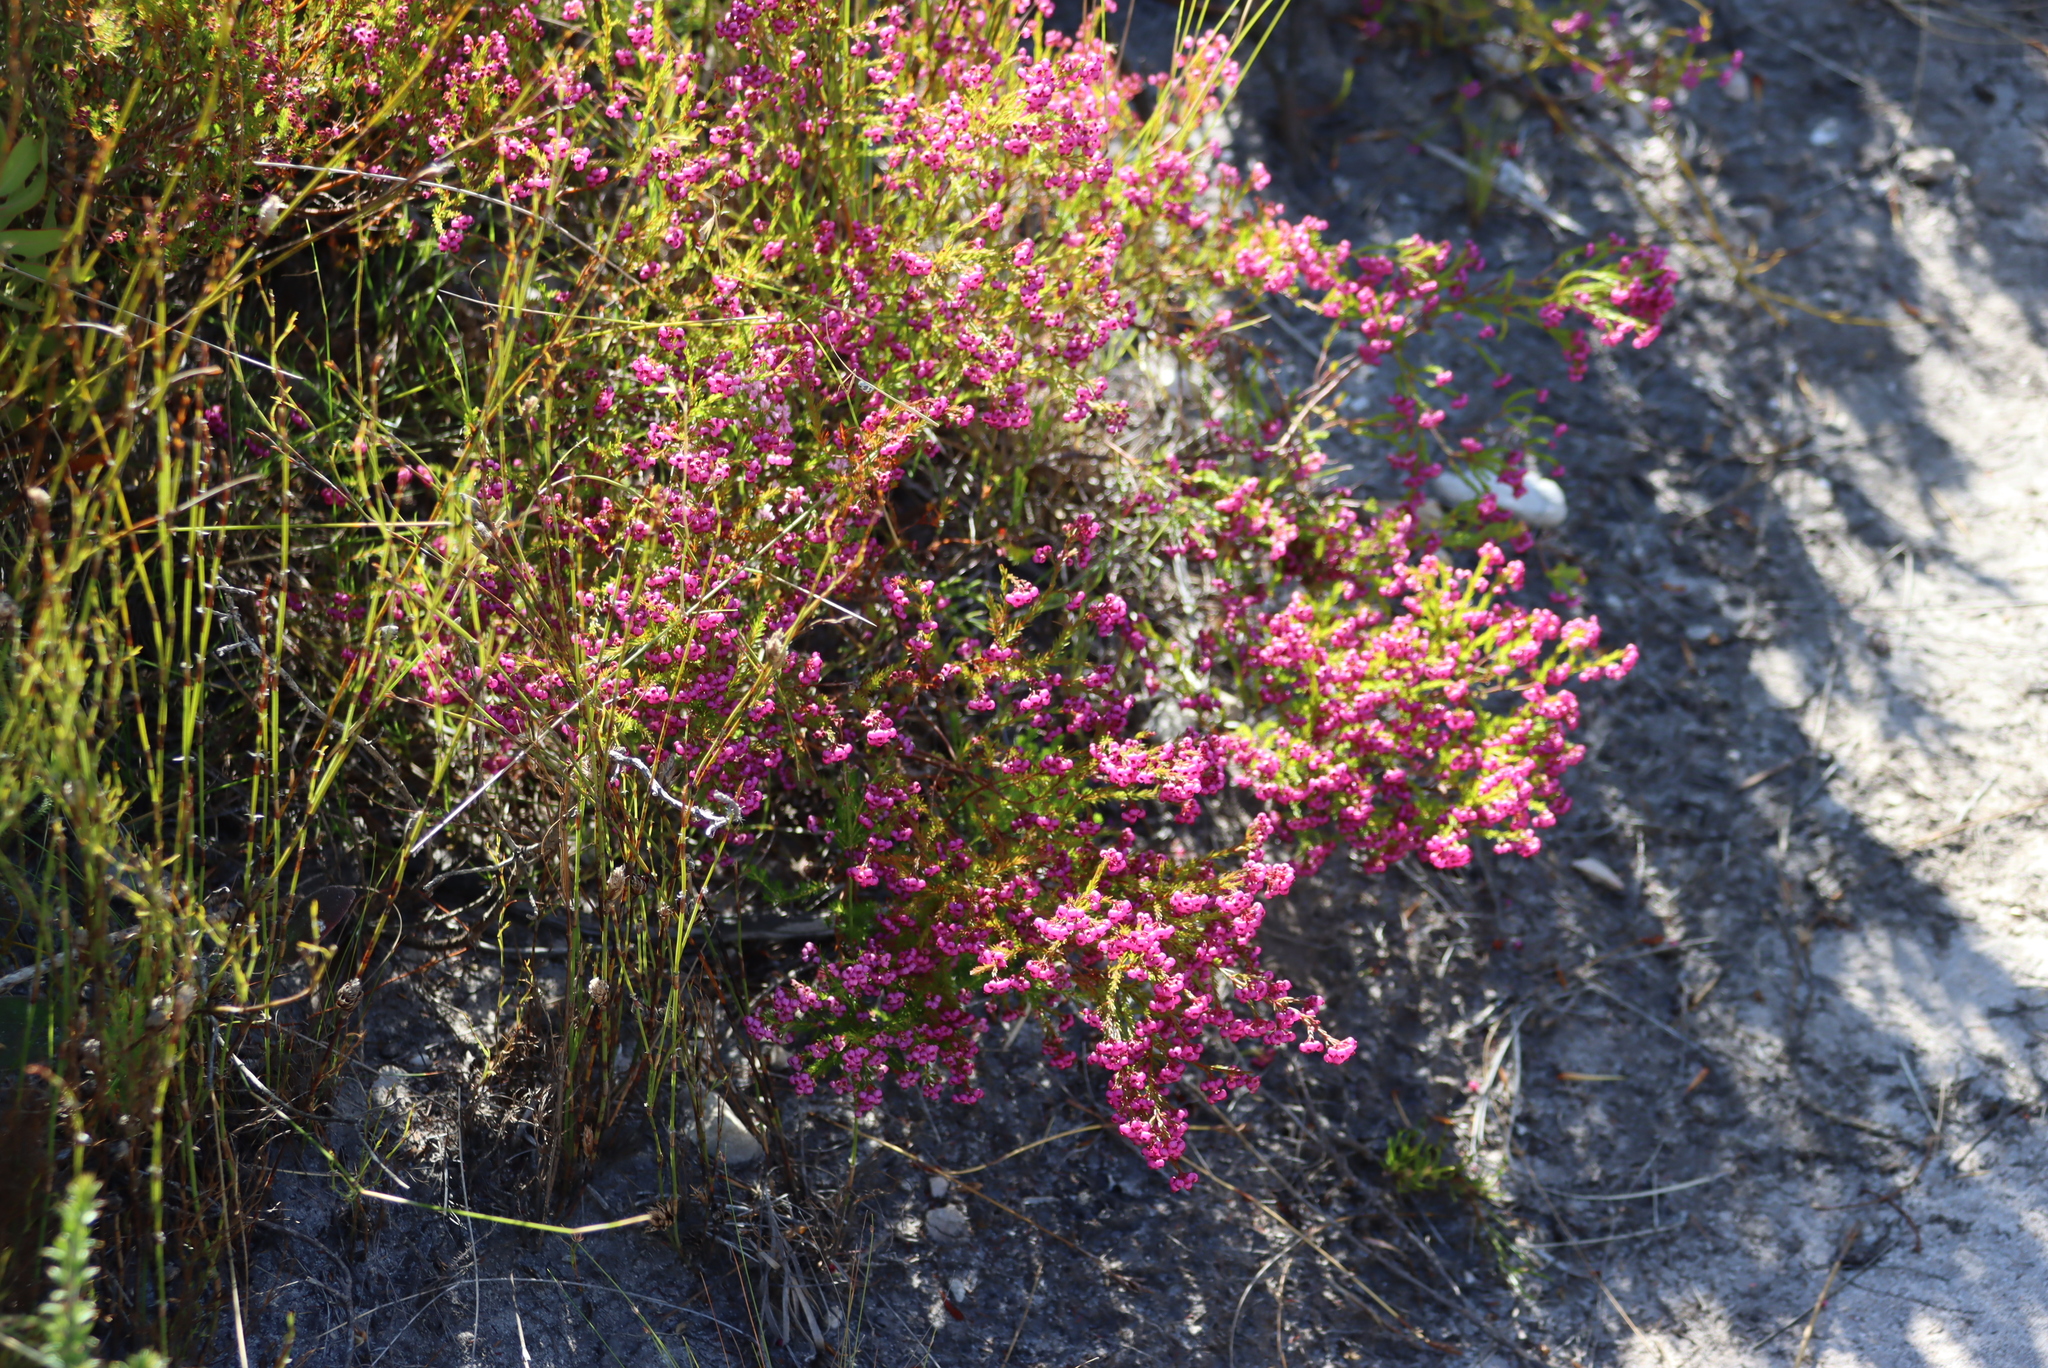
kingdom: Plantae
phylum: Tracheophyta
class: Magnoliopsida
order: Ericales
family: Ericaceae
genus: Erica
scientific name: Erica multumbellifera
